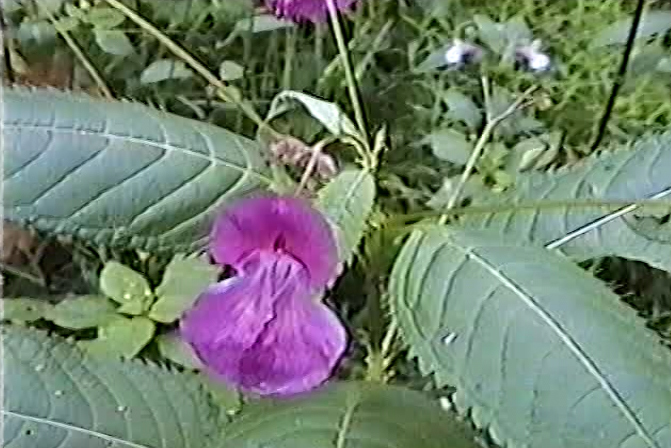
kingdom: Plantae
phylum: Tracheophyta
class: Magnoliopsida
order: Ericales
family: Balsaminaceae
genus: Impatiens
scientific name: Impatiens glandulifera
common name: Himalayan balsam
